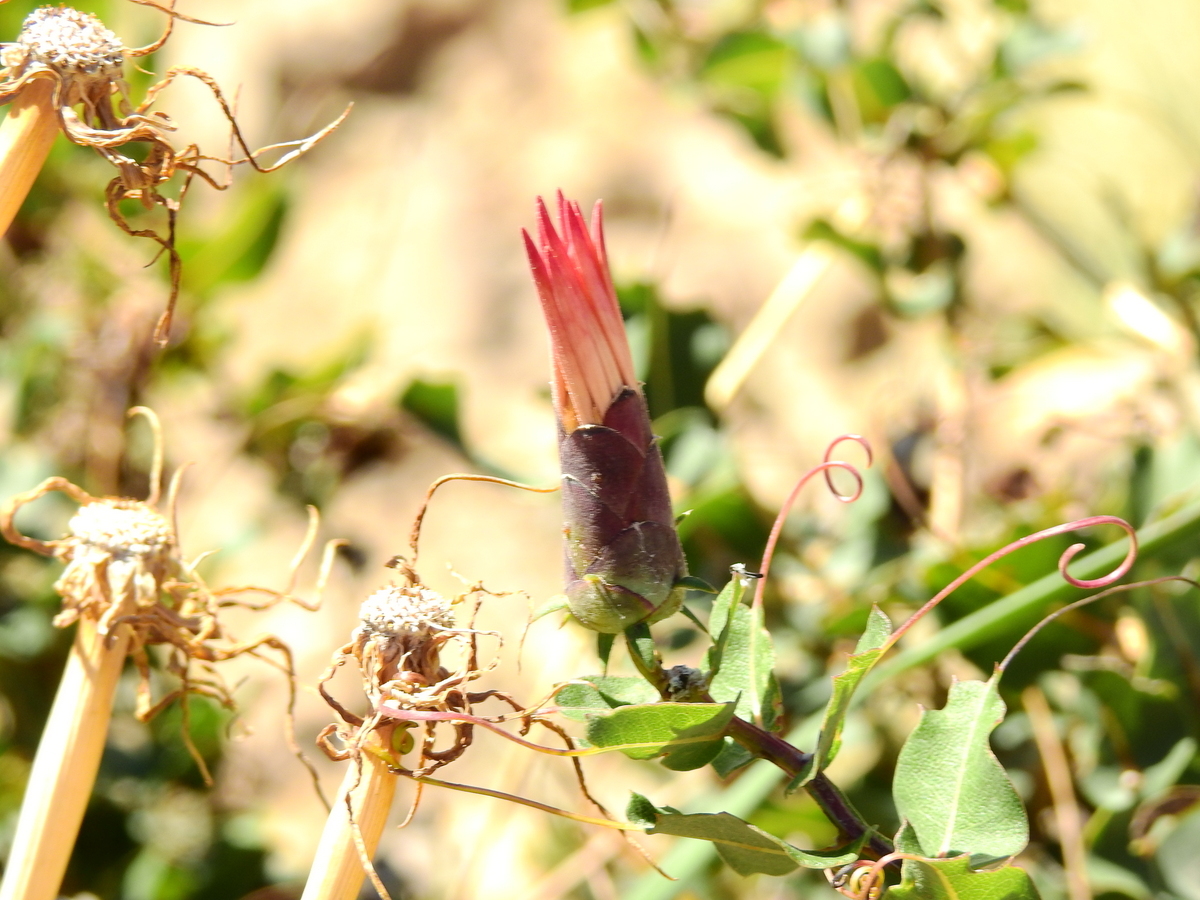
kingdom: Plantae
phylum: Tracheophyta
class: Magnoliopsida
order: Asterales
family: Asteraceae
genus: Mutisia
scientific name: Mutisia spinosa
